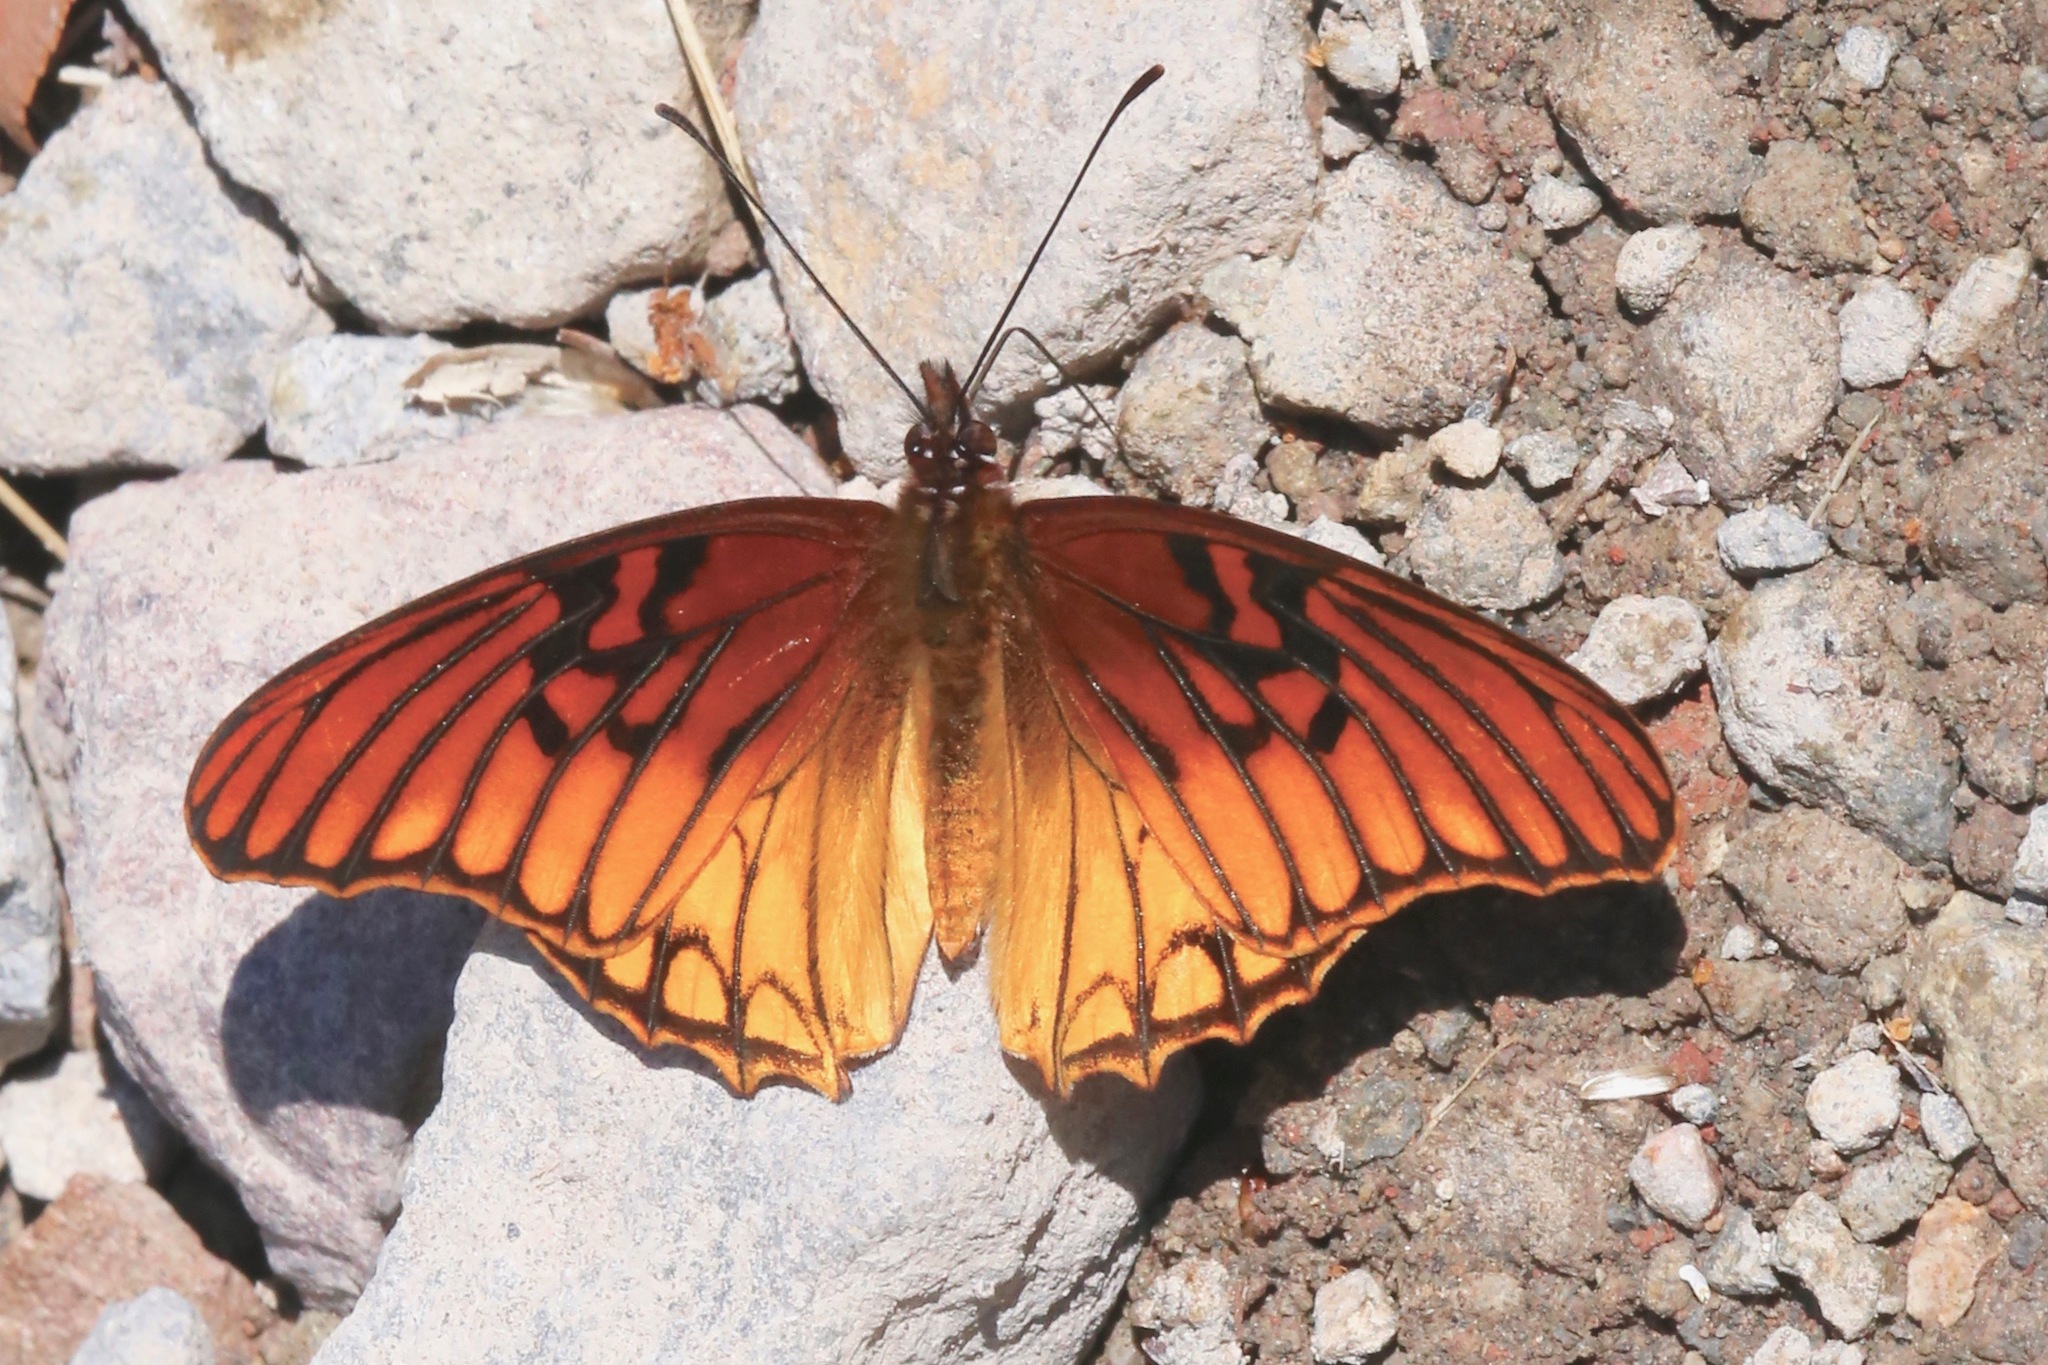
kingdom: Animalia
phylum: Arthropoda
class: Insecta
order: Lepidoptera
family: Nymphalidae
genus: Dione
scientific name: Dione moneta
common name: Mexican silverspot
